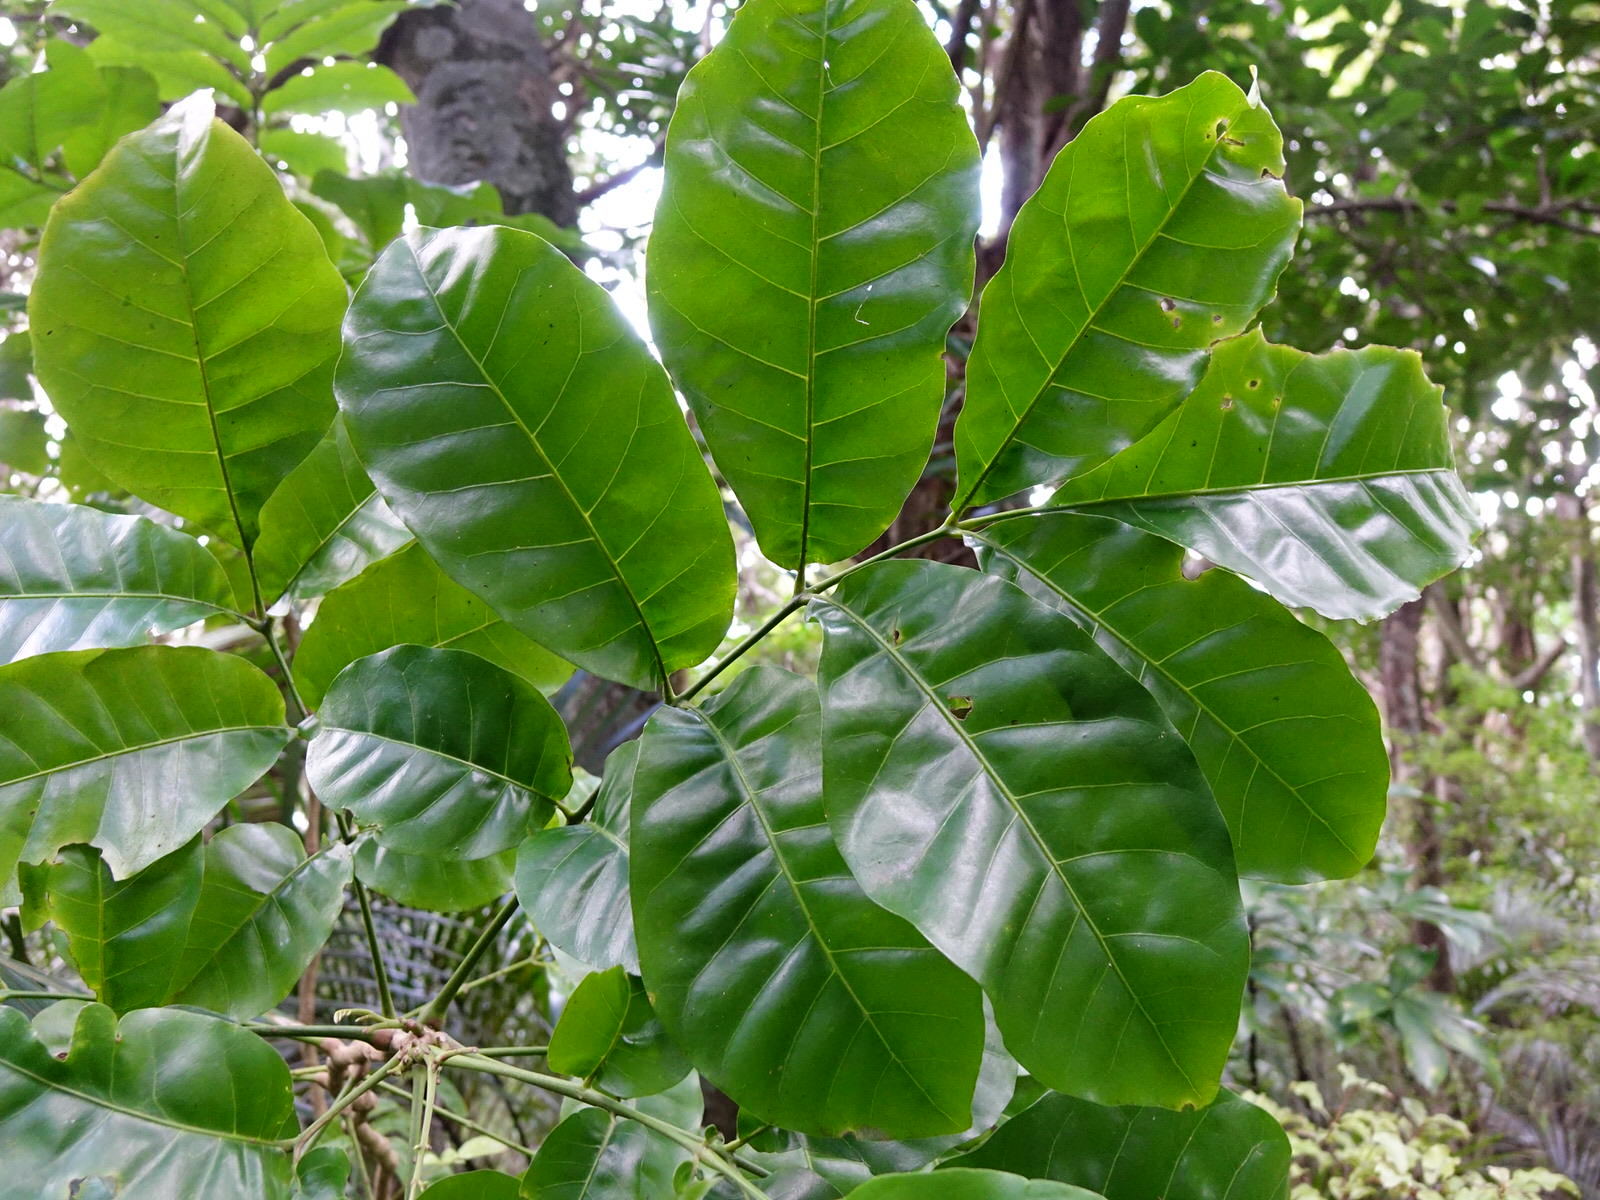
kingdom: Plantae
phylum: Tracheophyta
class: Magnoliopsida
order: Sapindales
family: Meliaceae
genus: Didymocheton
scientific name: Didymocheton spectabilis
